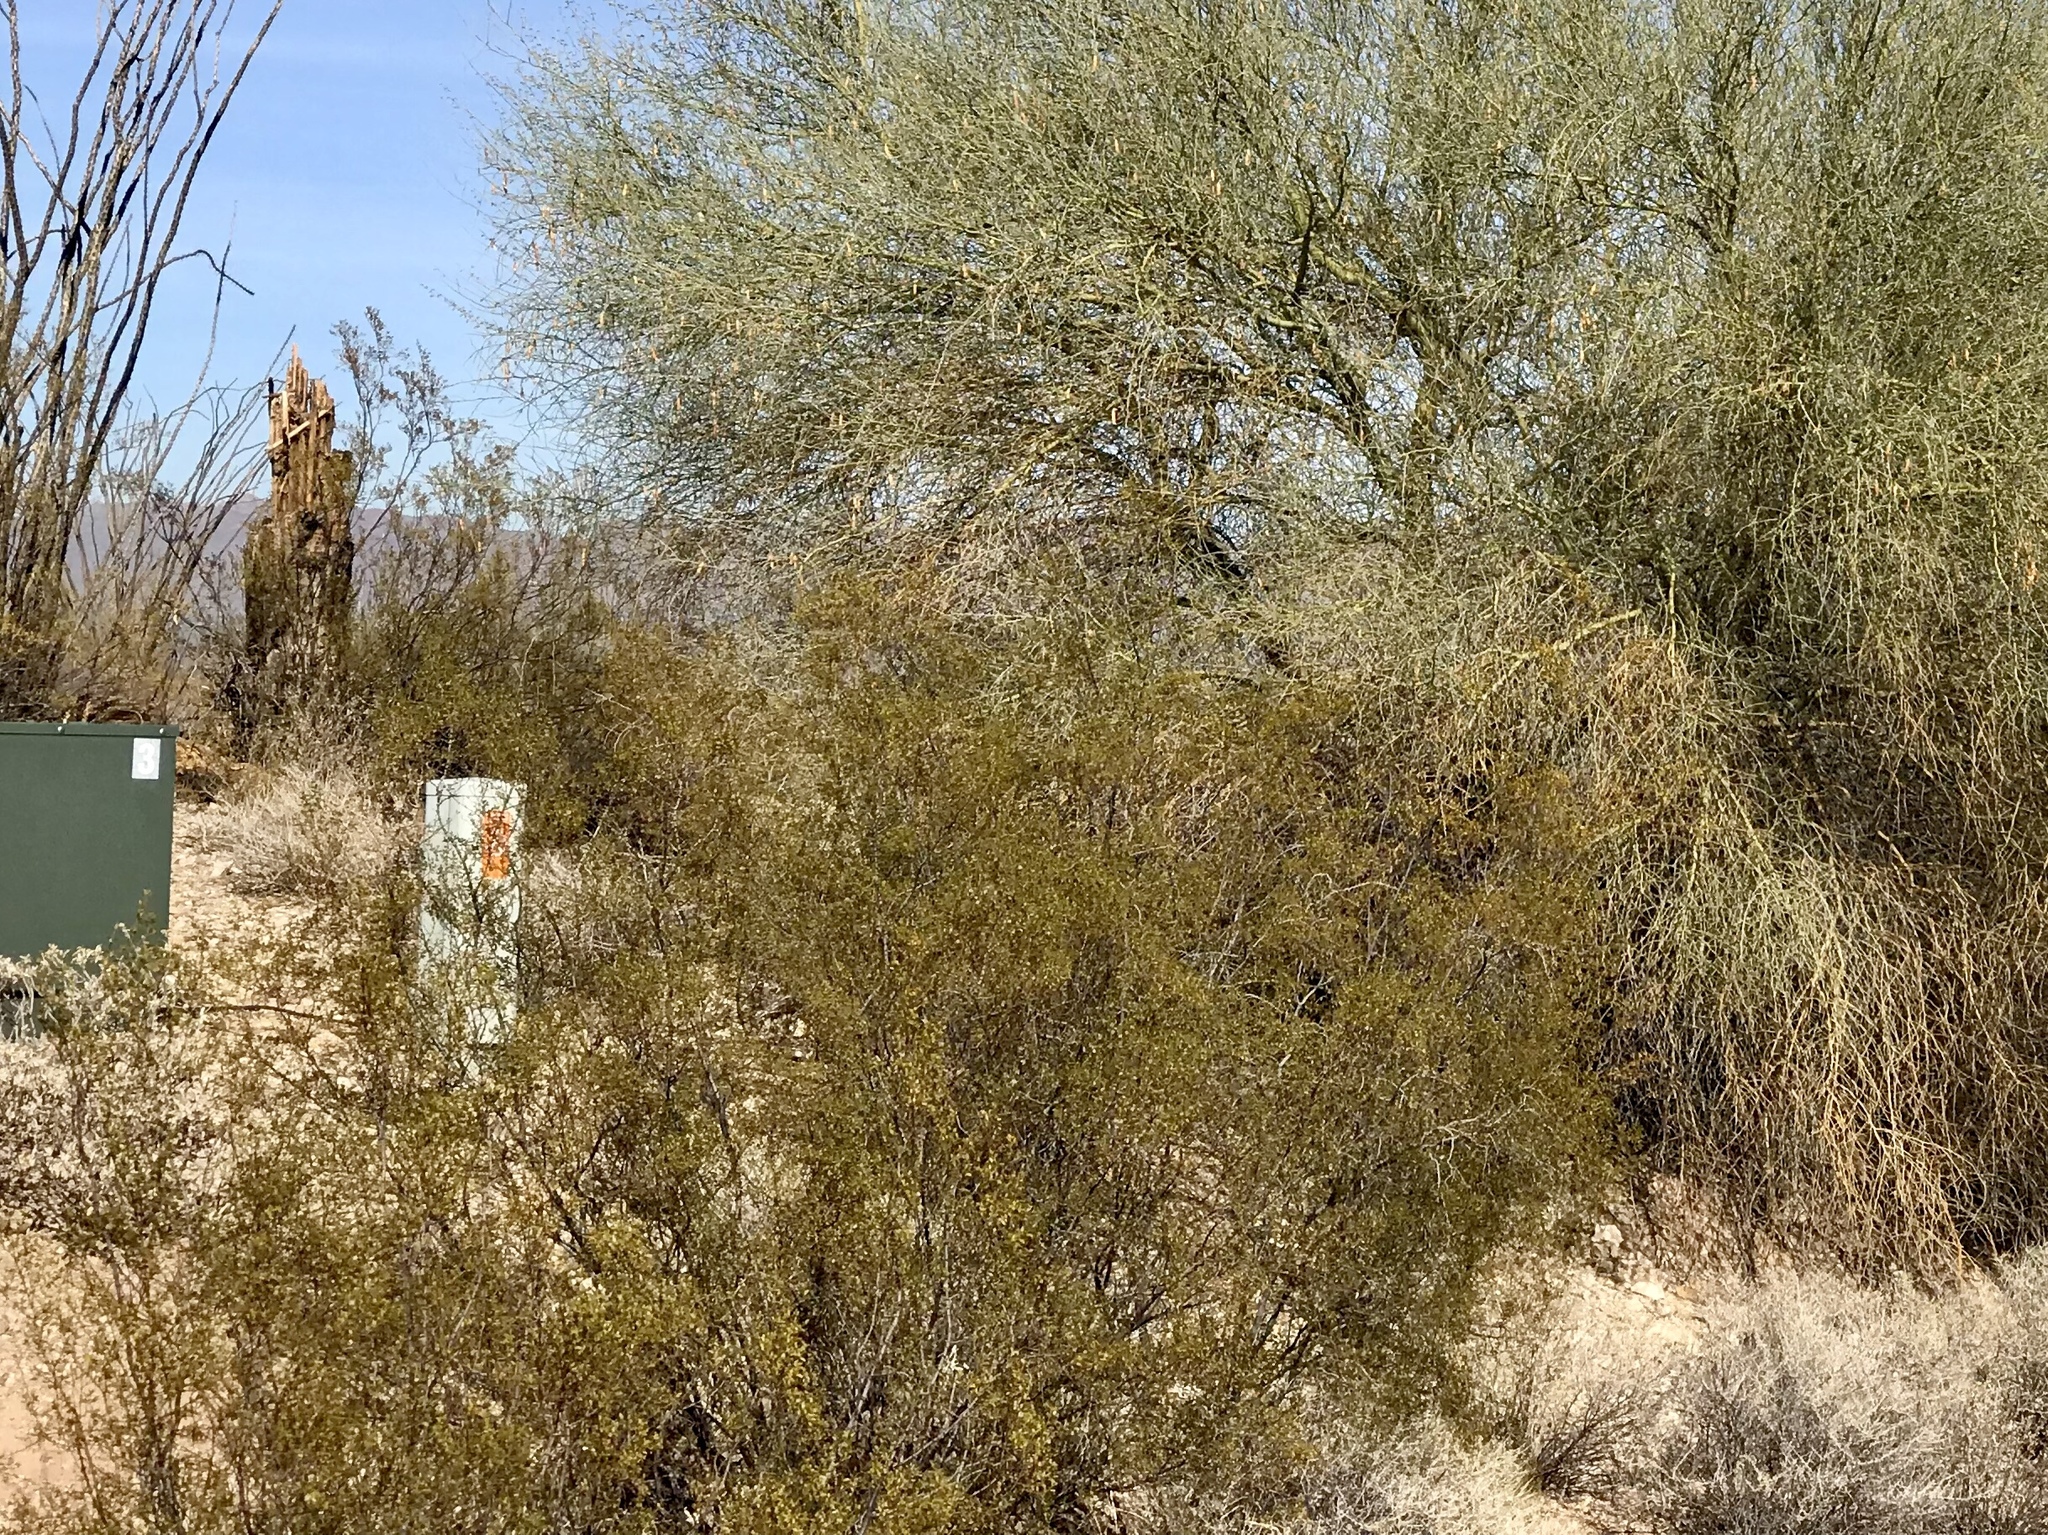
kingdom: Plantae
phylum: Tracheophyta
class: Magnoliopsida
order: Zygophyllales
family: Zygophyllaceae
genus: Larrea
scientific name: Larrea tridentata
